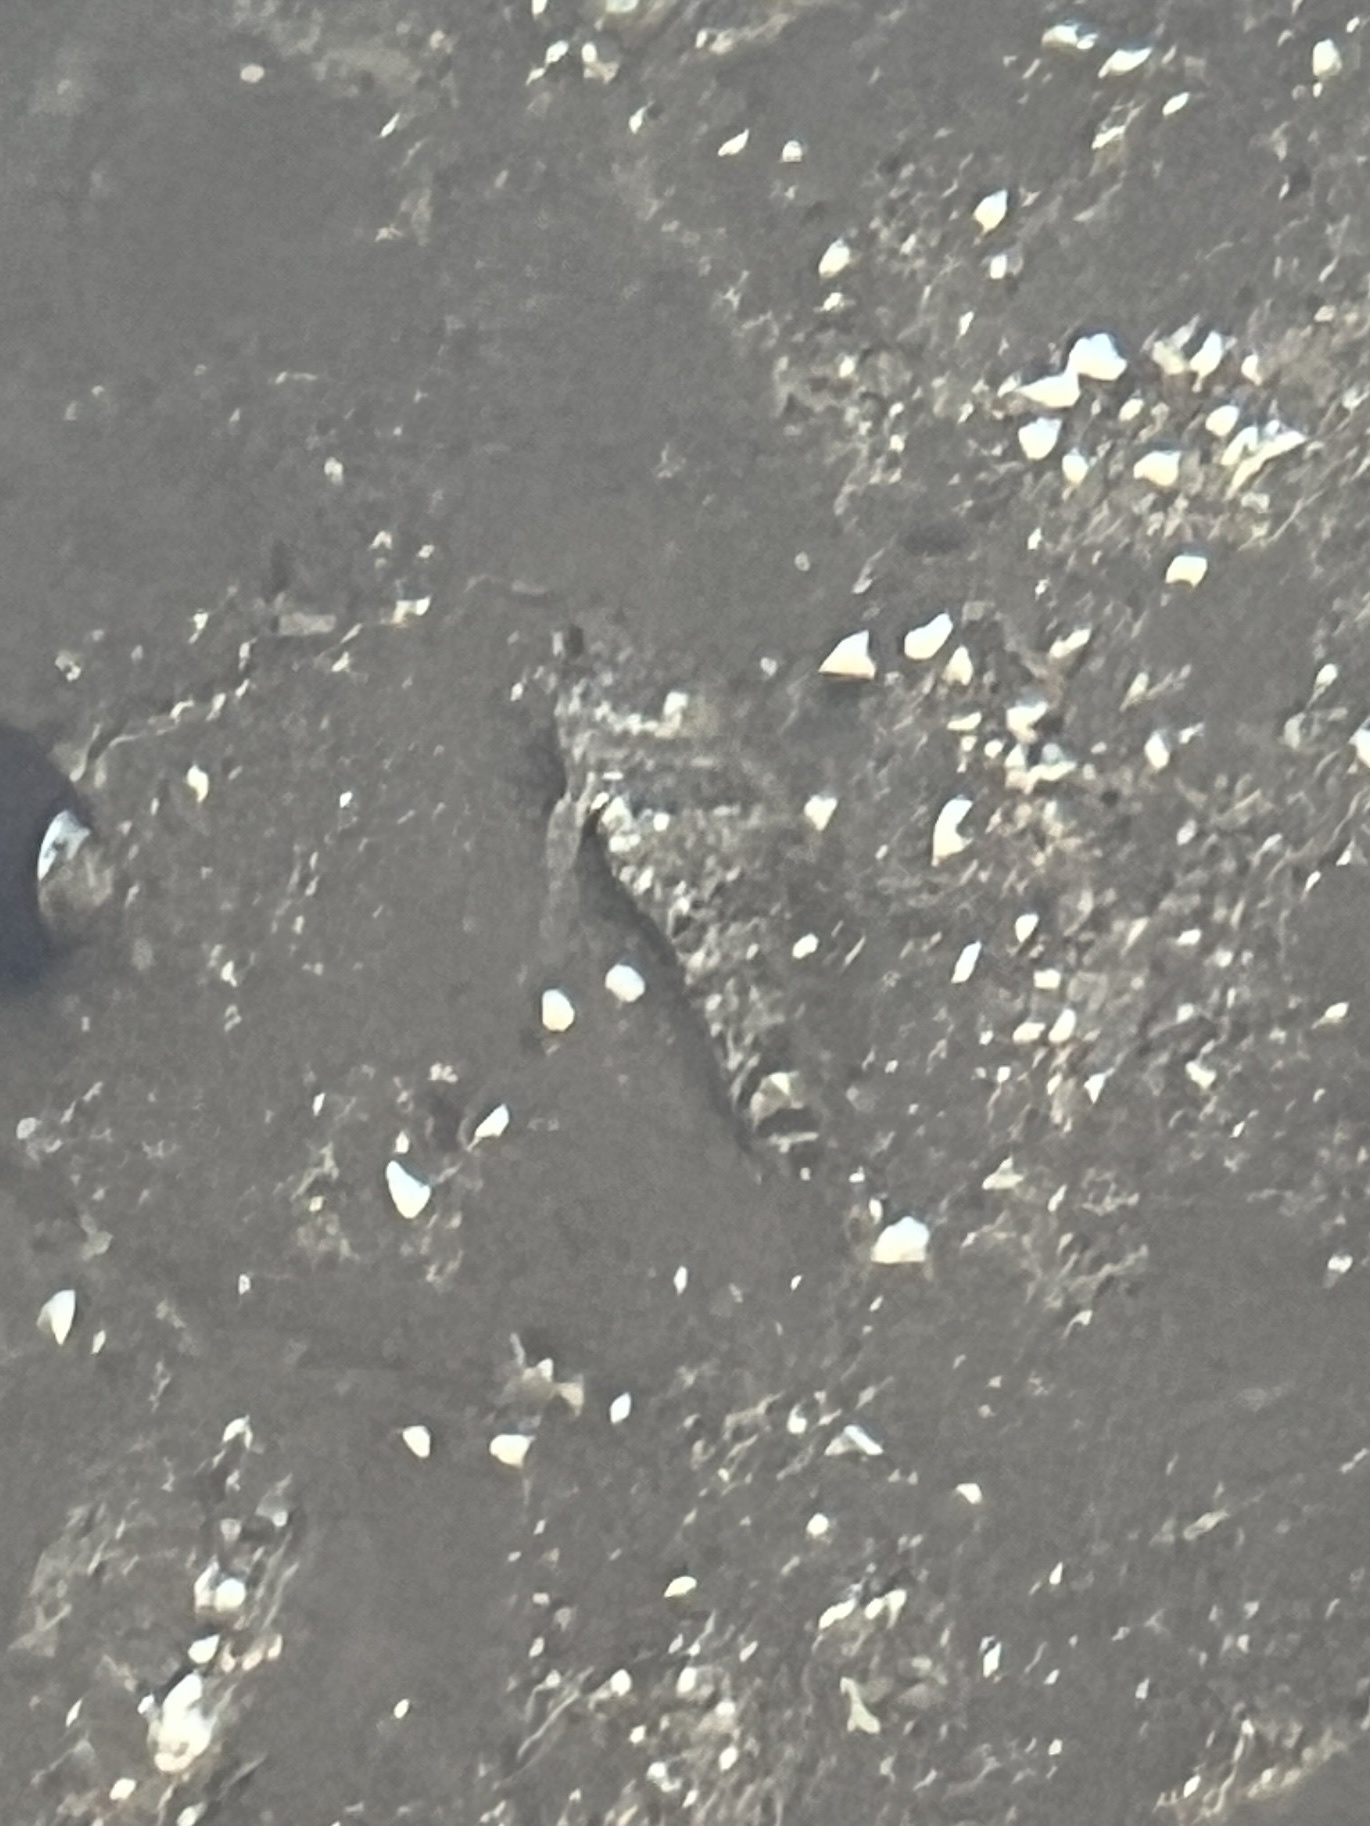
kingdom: Animalia
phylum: Chordata
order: Scorpaeniformes
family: Cottidae
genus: Clinocottus
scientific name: Clinocottus analis
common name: Woolly sculpin
